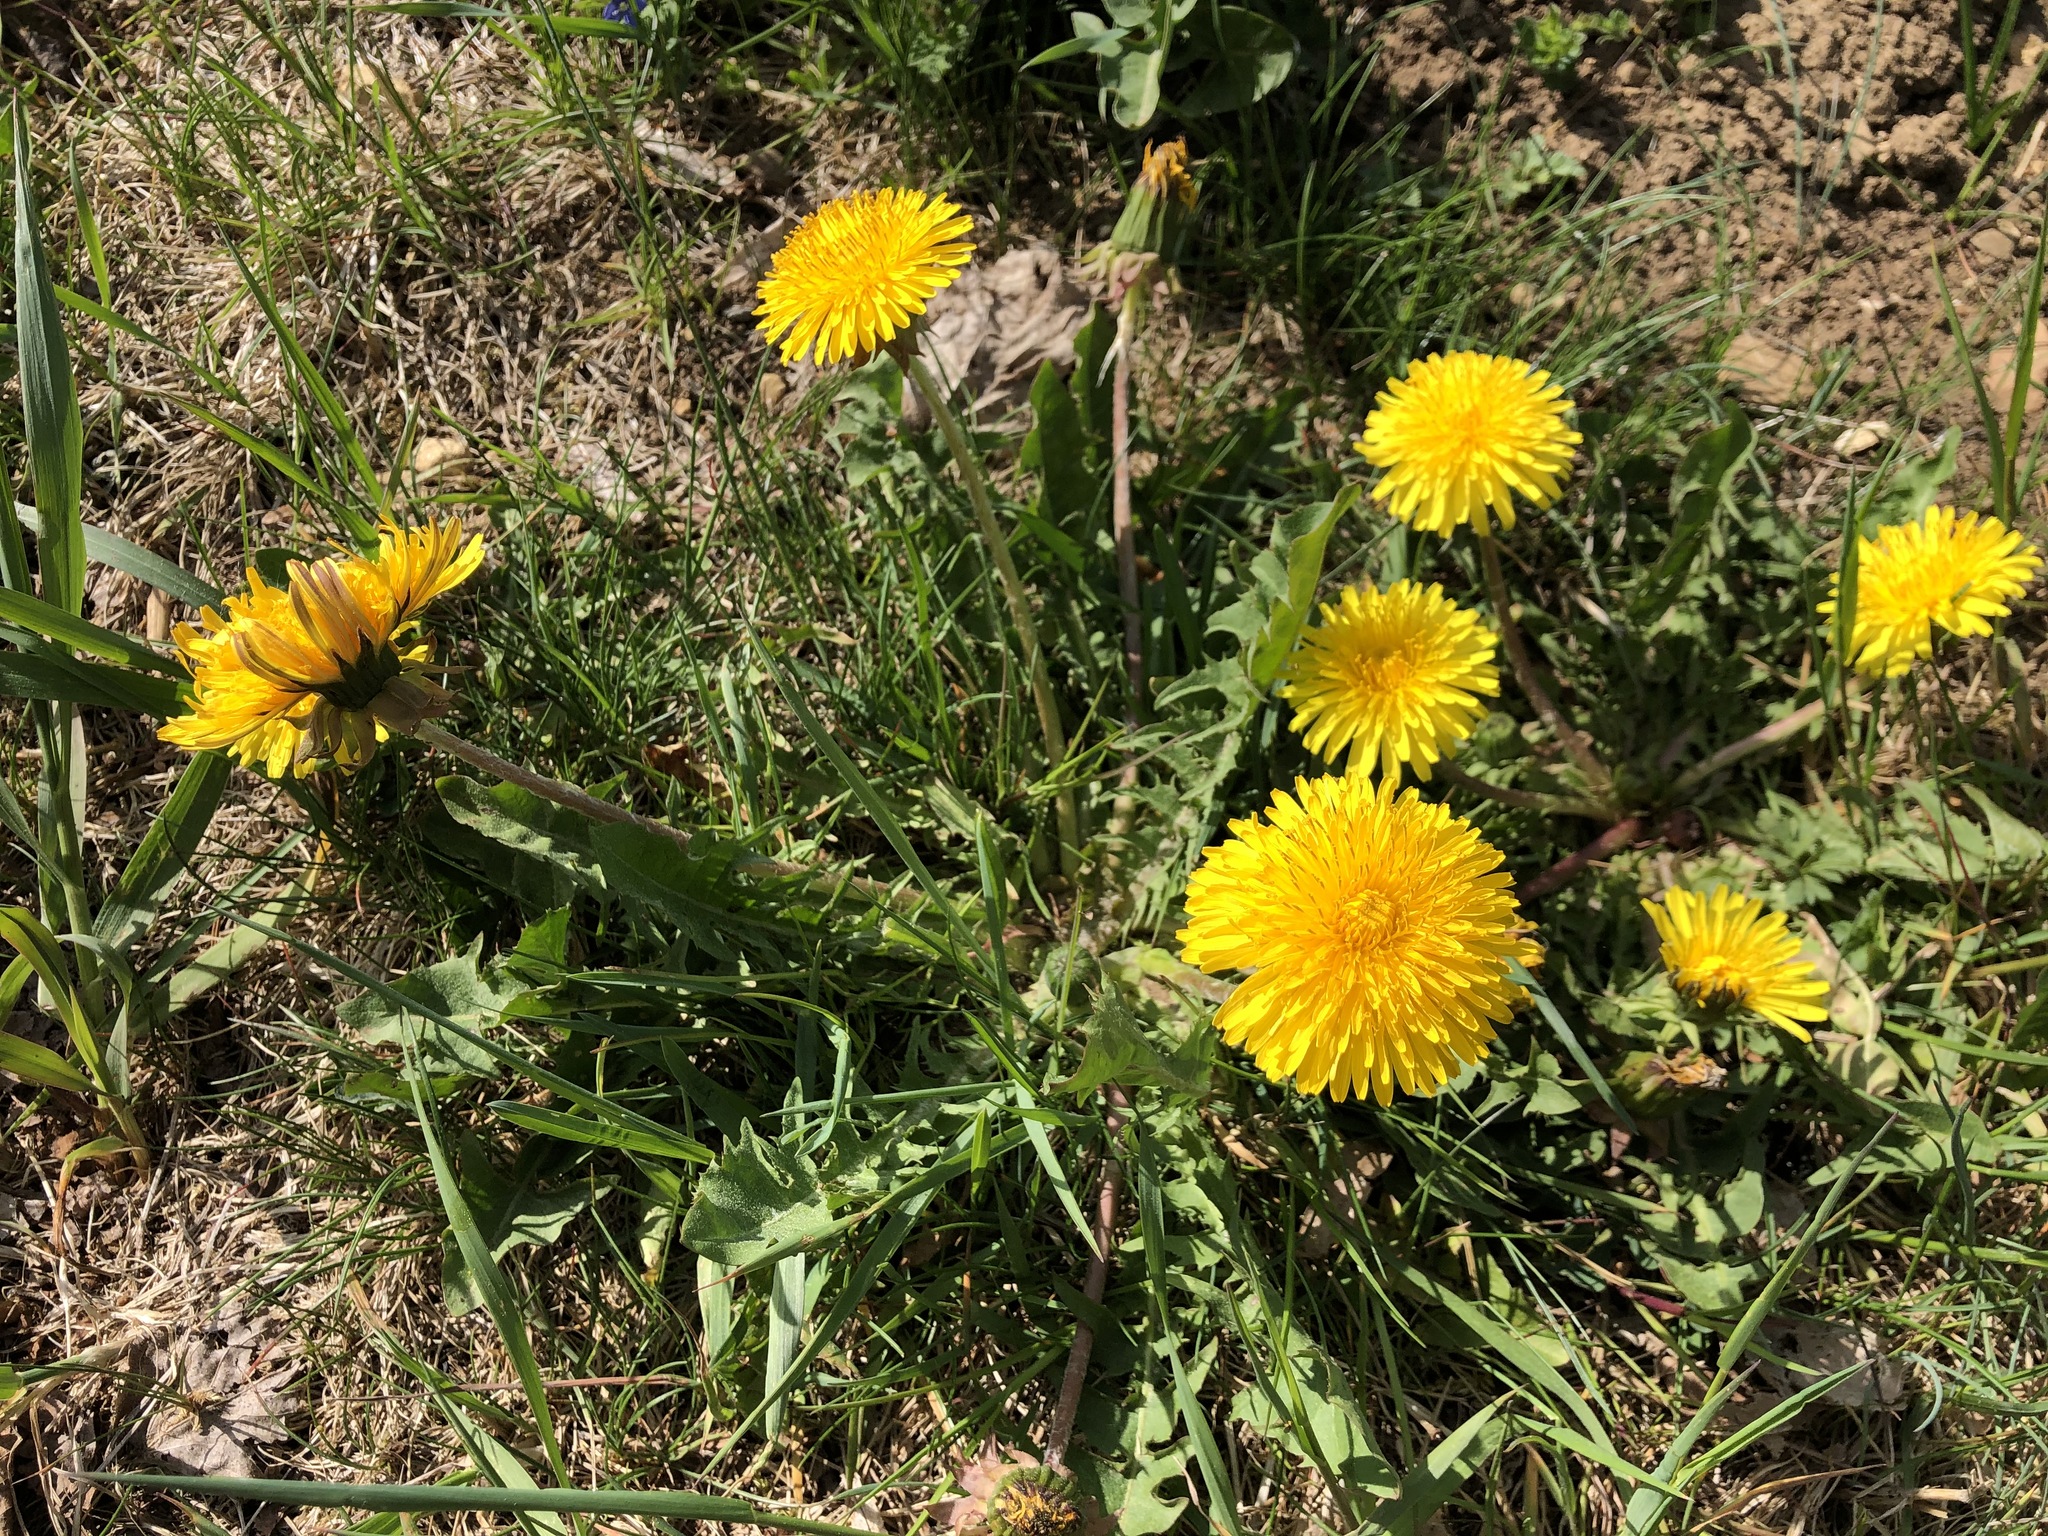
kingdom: Plantae
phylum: Tracheophyta
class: Magnoliopsida
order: Asterales
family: Asteraceae
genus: Taraxacum
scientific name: Taraxacum officinale
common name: Common dandelion
